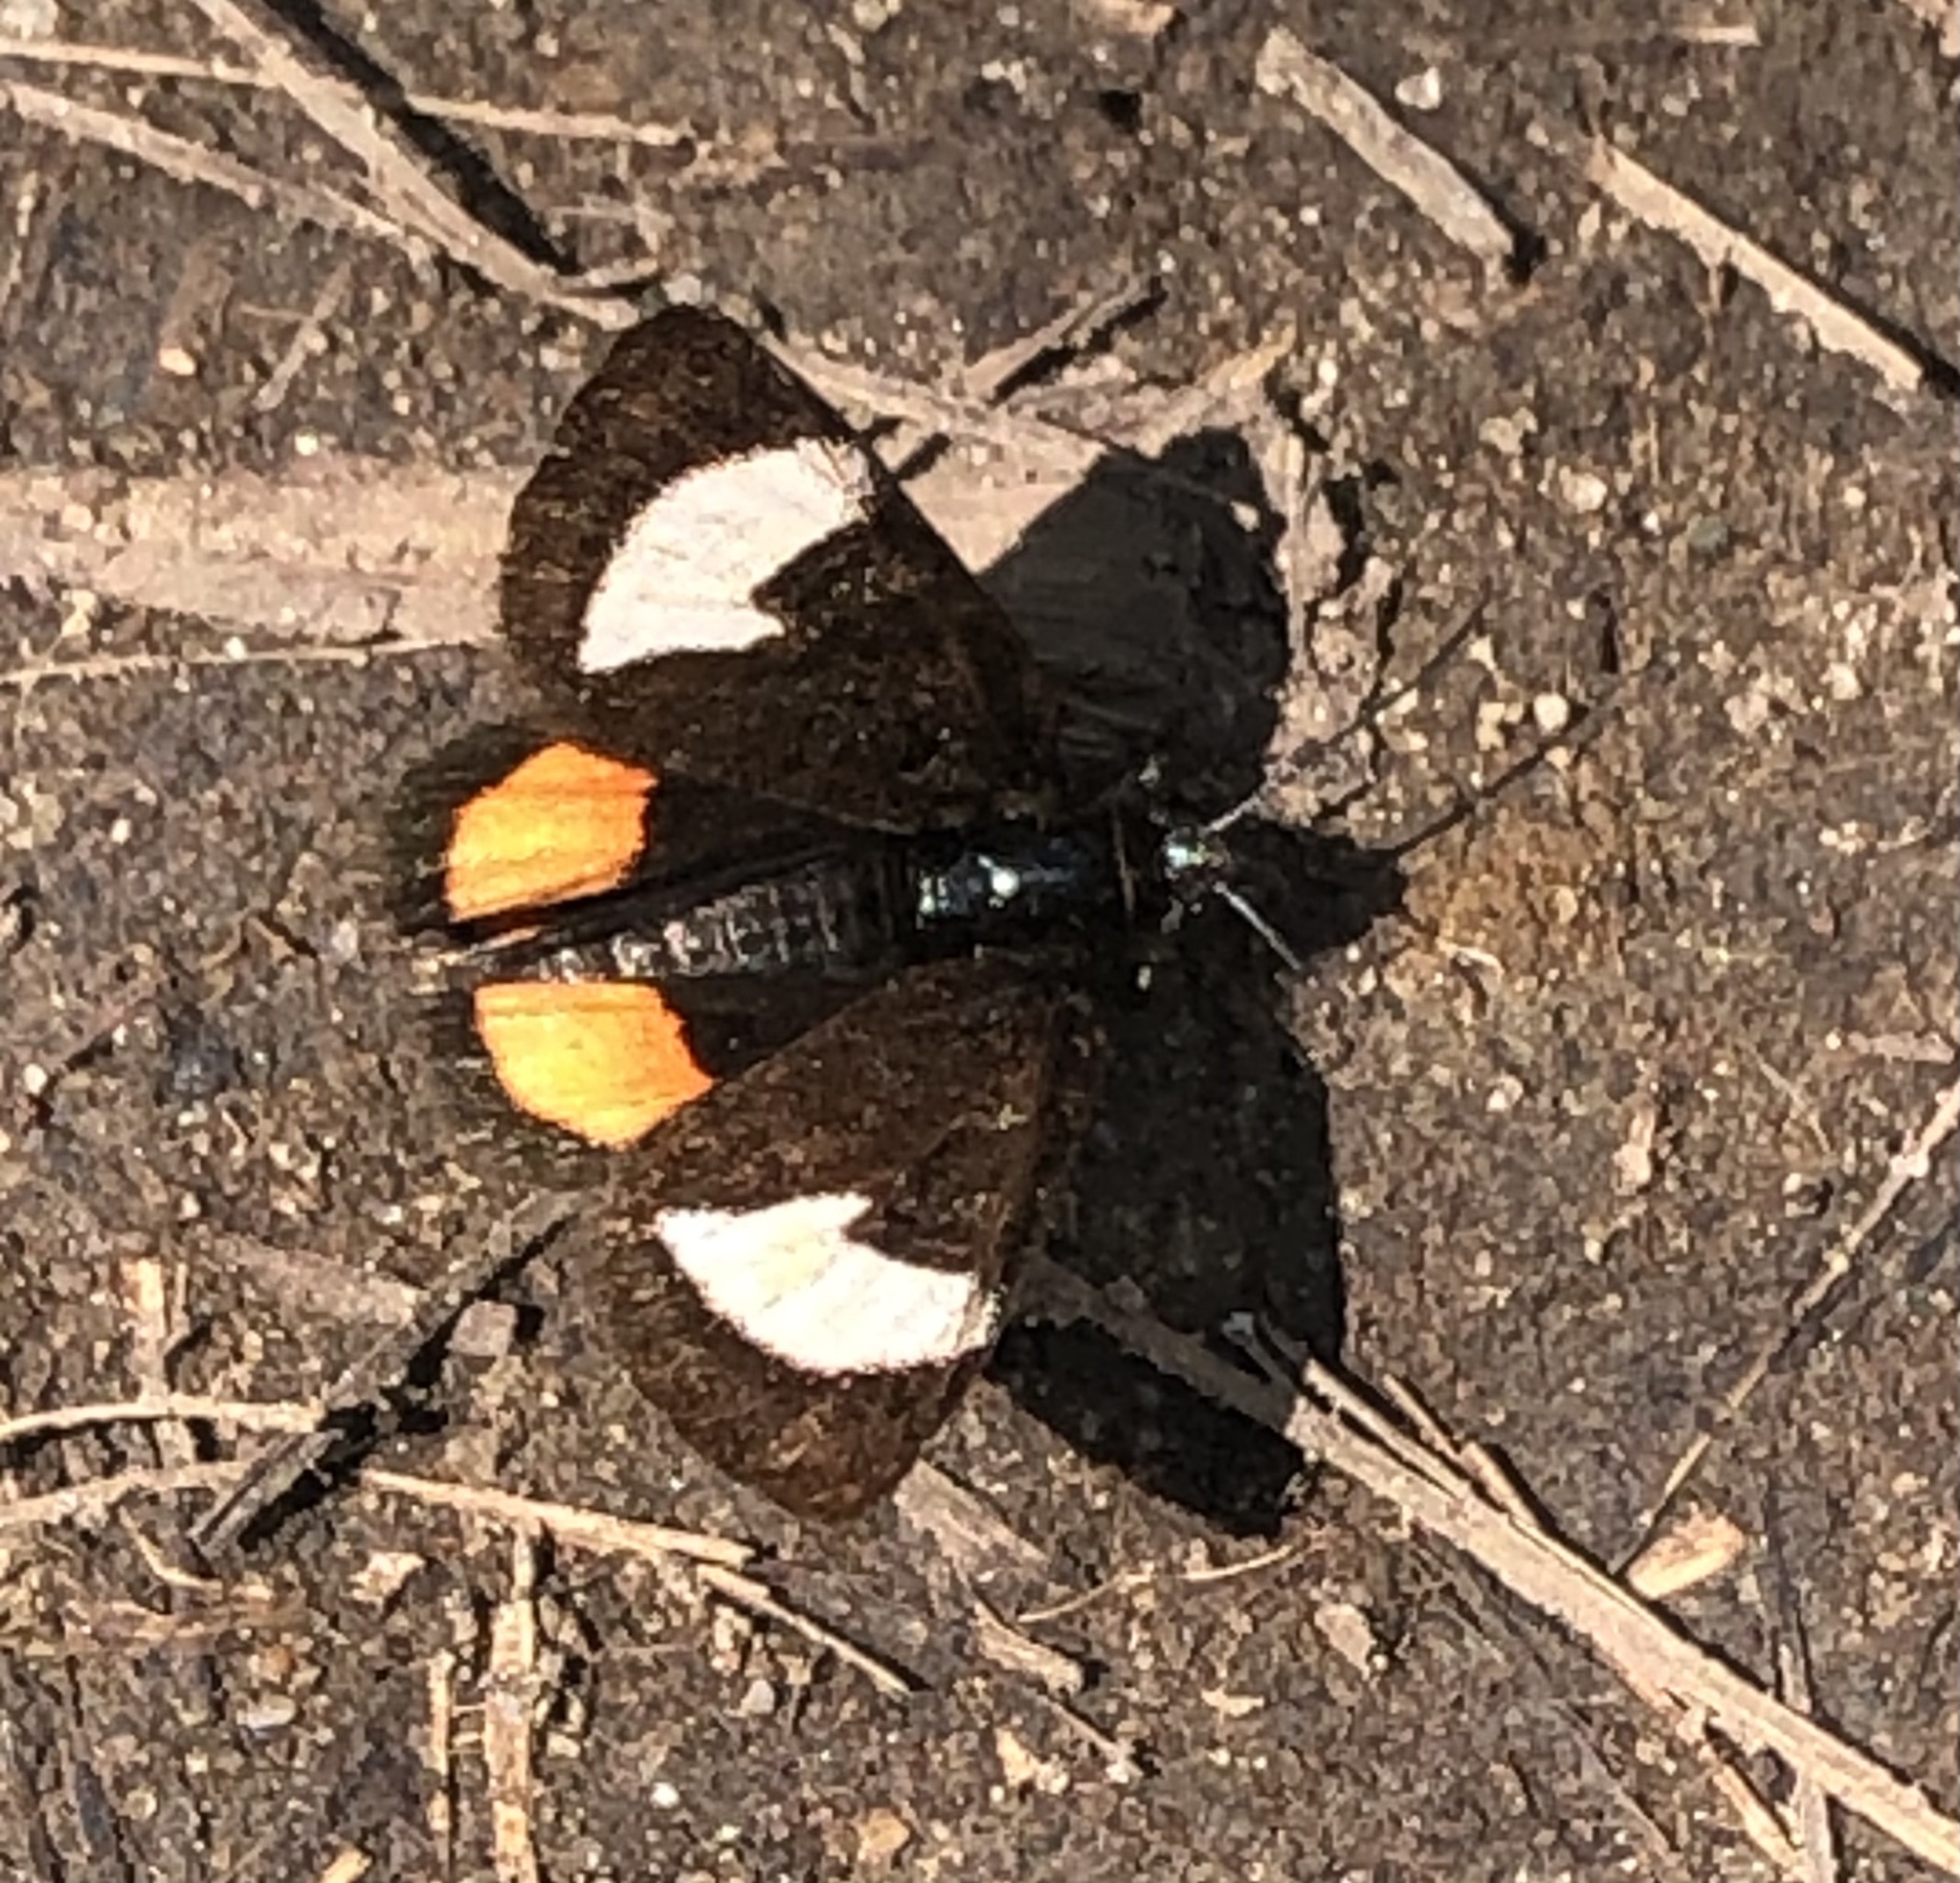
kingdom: Animalia
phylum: Arthropoda
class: Insecta
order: Lepidoptera
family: Noctuidae
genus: Psychomorpha
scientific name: Psychomorpha epimenis
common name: Grapevine epimenis moth
